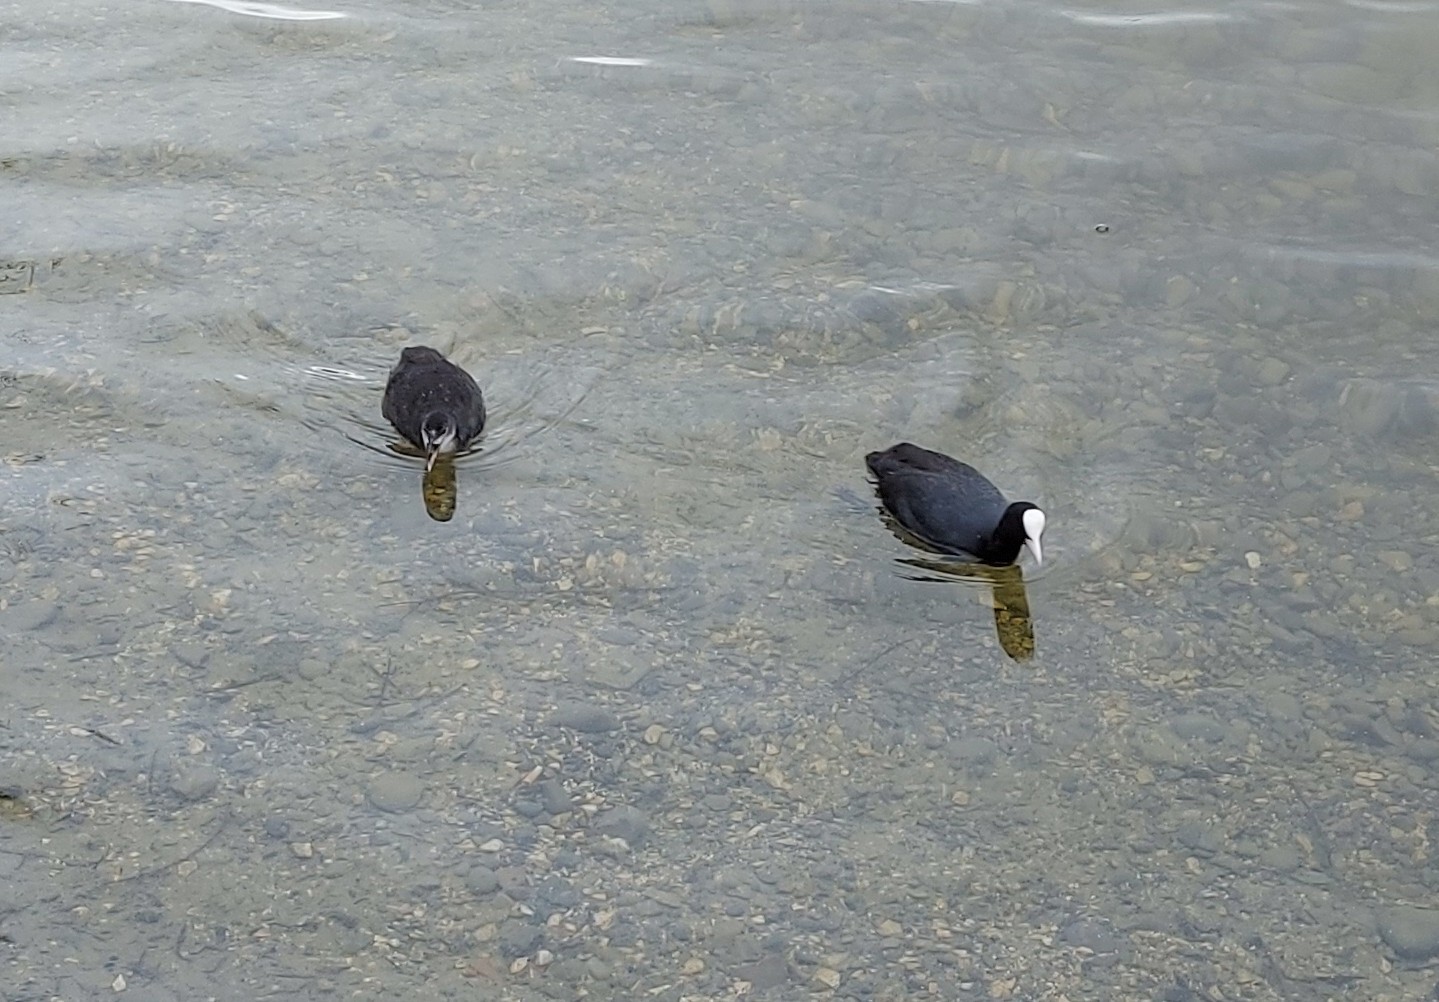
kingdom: Animalia
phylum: Chordata
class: Aves
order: Gruiformes
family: Rallidae
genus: Fulica
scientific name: Fulica atra
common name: Eurasian coot
